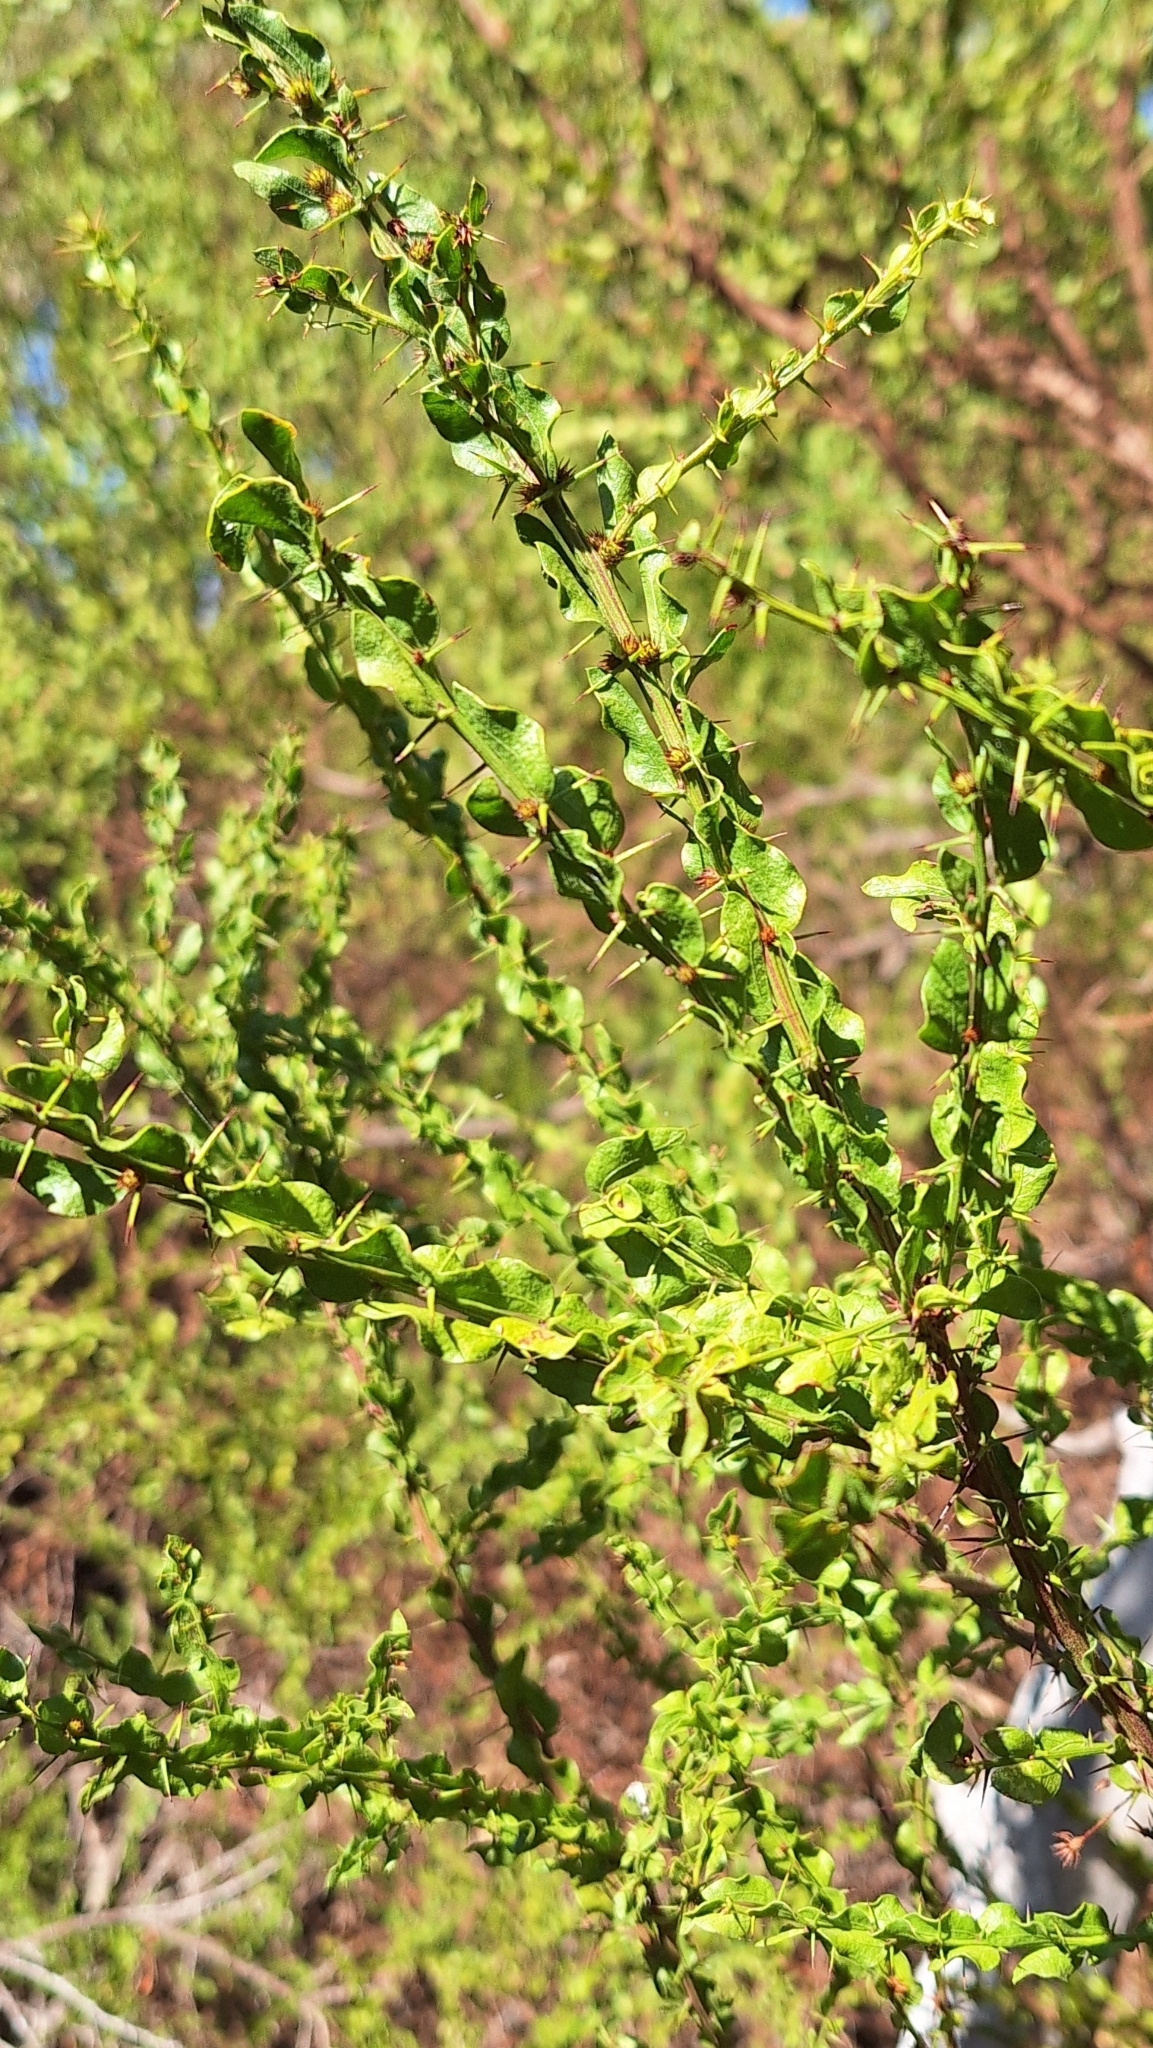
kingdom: Plantae
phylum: Tracheophyta
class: Magnoliopsida
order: Fabales
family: Fabaceae
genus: Acacia
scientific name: Acacia paradoxa
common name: Paradox acacia
